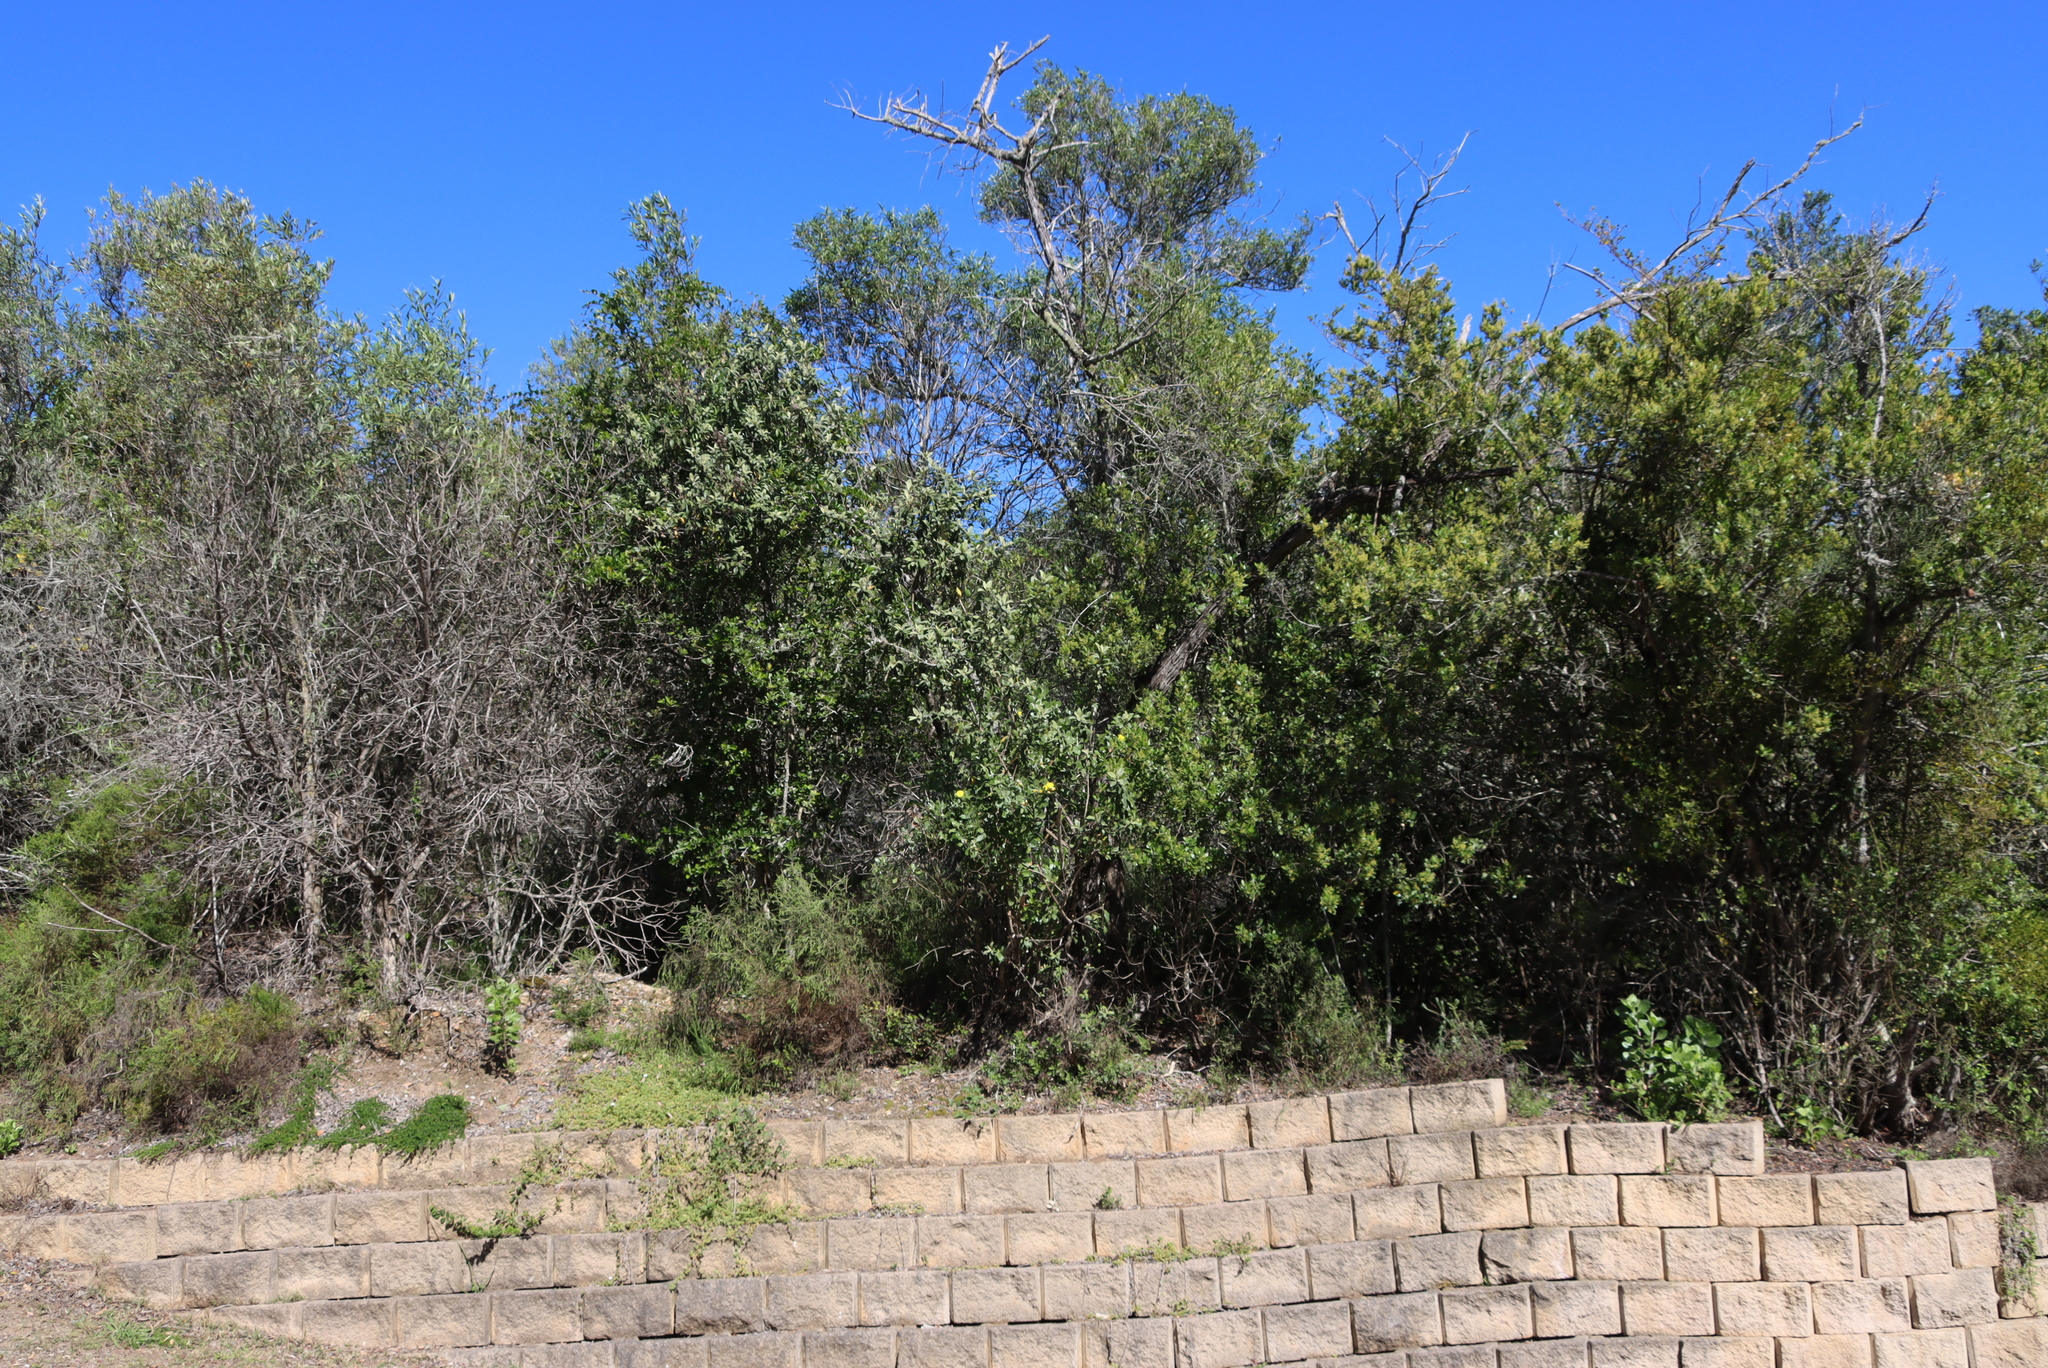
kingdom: Plantae
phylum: Tracheophyta
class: Magnoliopsida
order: Metteniusales
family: Metteniusaceae
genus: Apodytes
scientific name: Apodytes dimidiata
